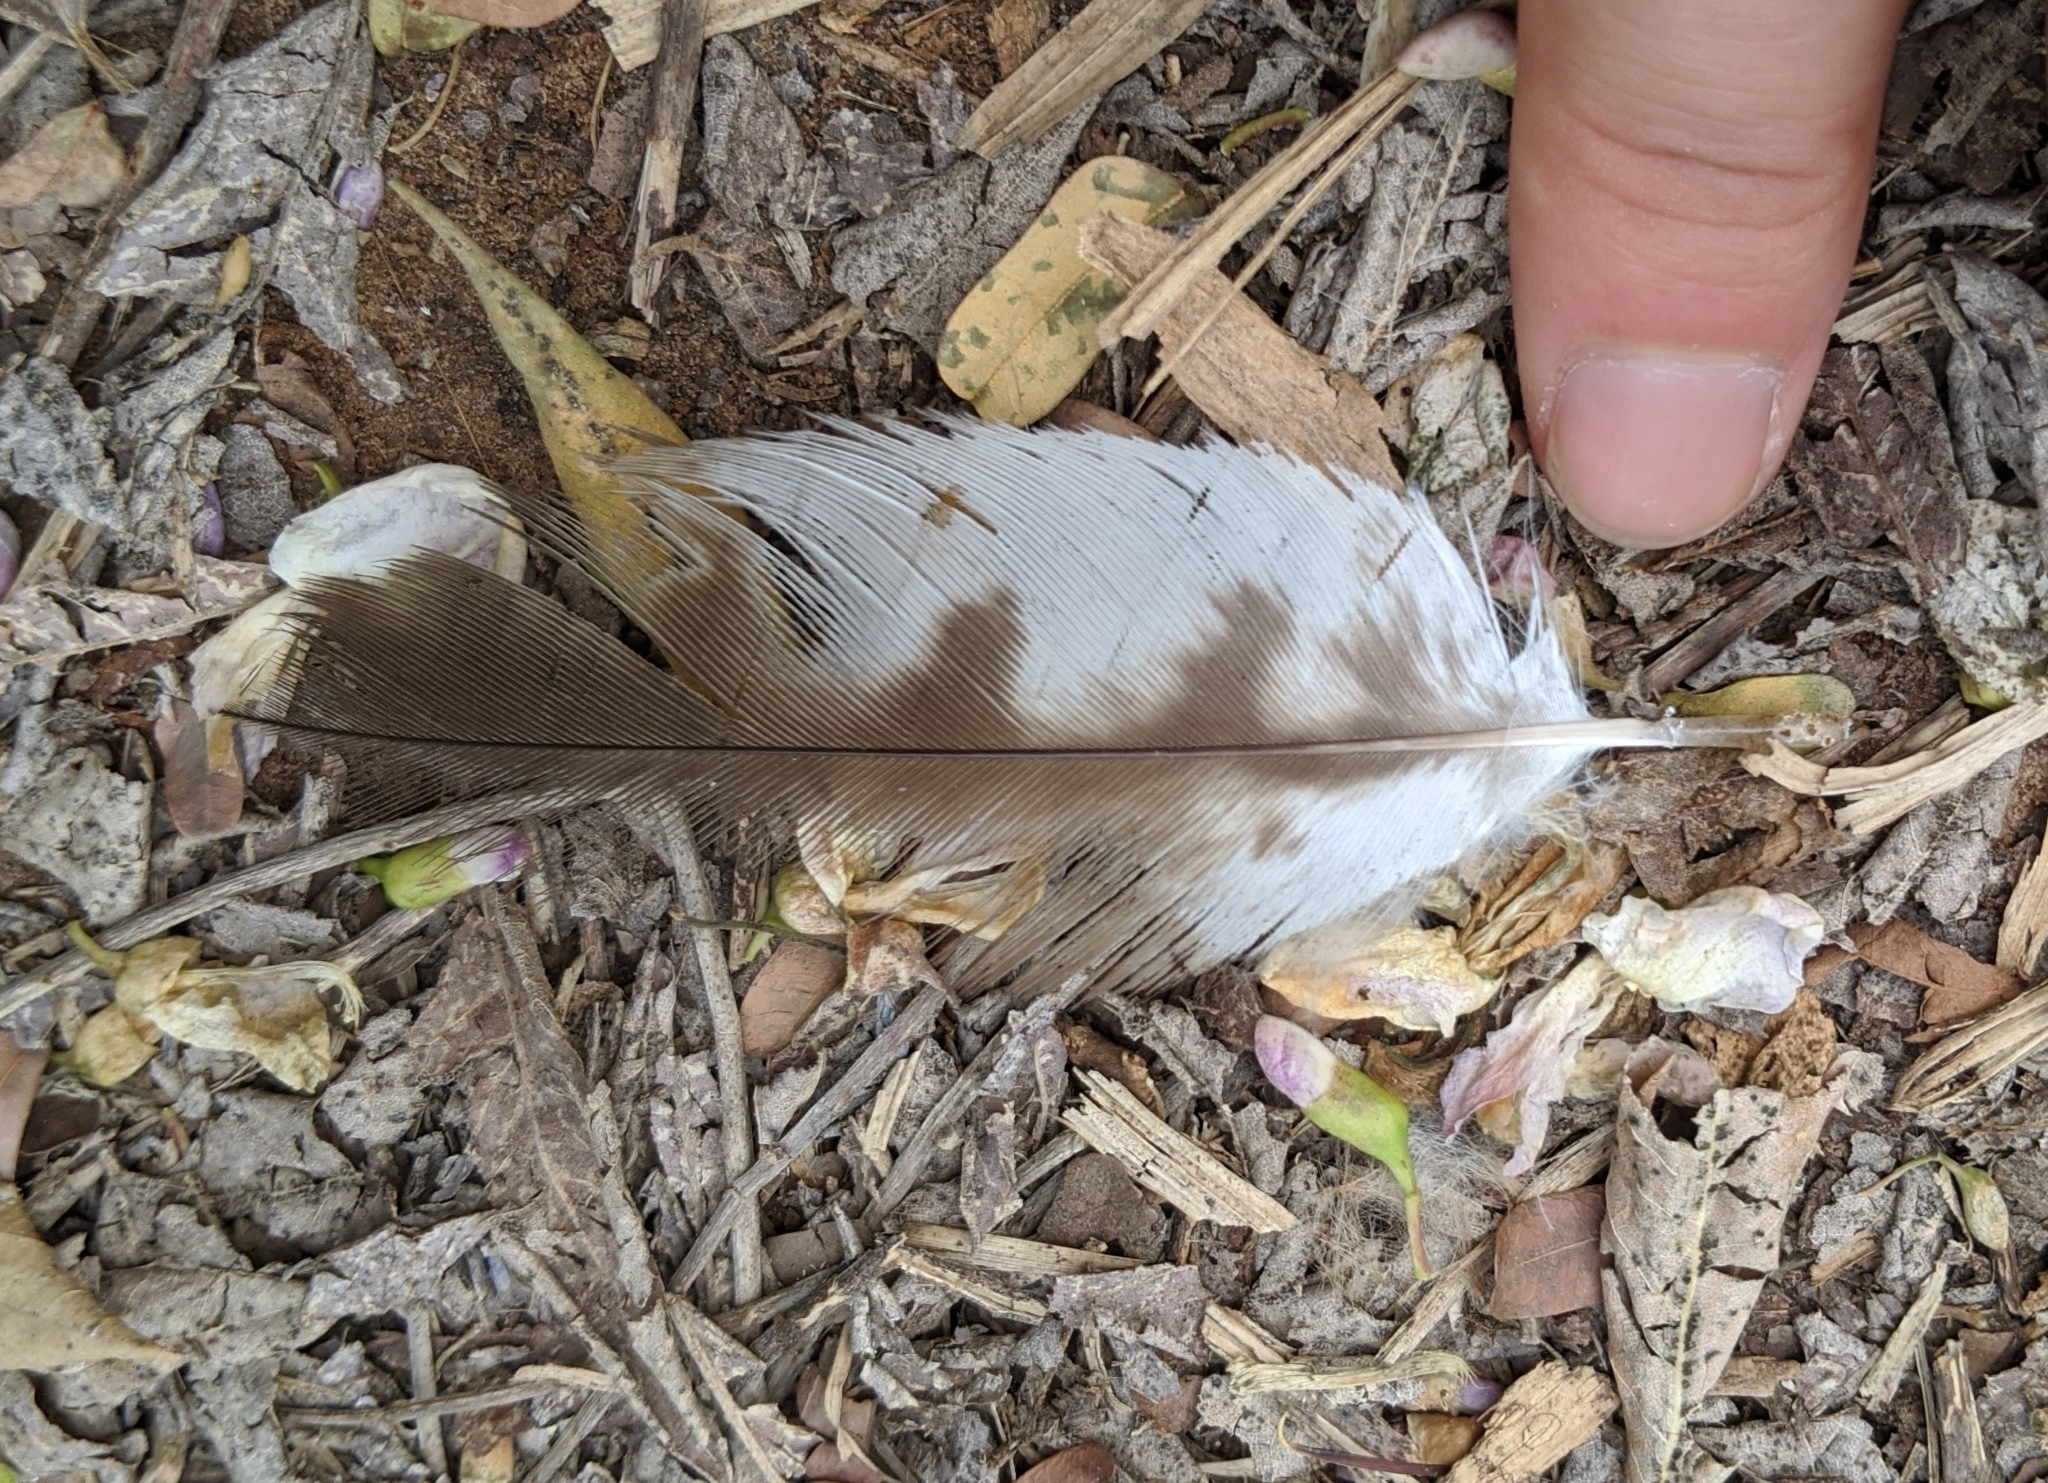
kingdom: Animalia
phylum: Chordata
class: Aves
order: Accipitriformes
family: Accipitridae
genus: Milvus
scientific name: Milvus migrans
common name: Black kite
